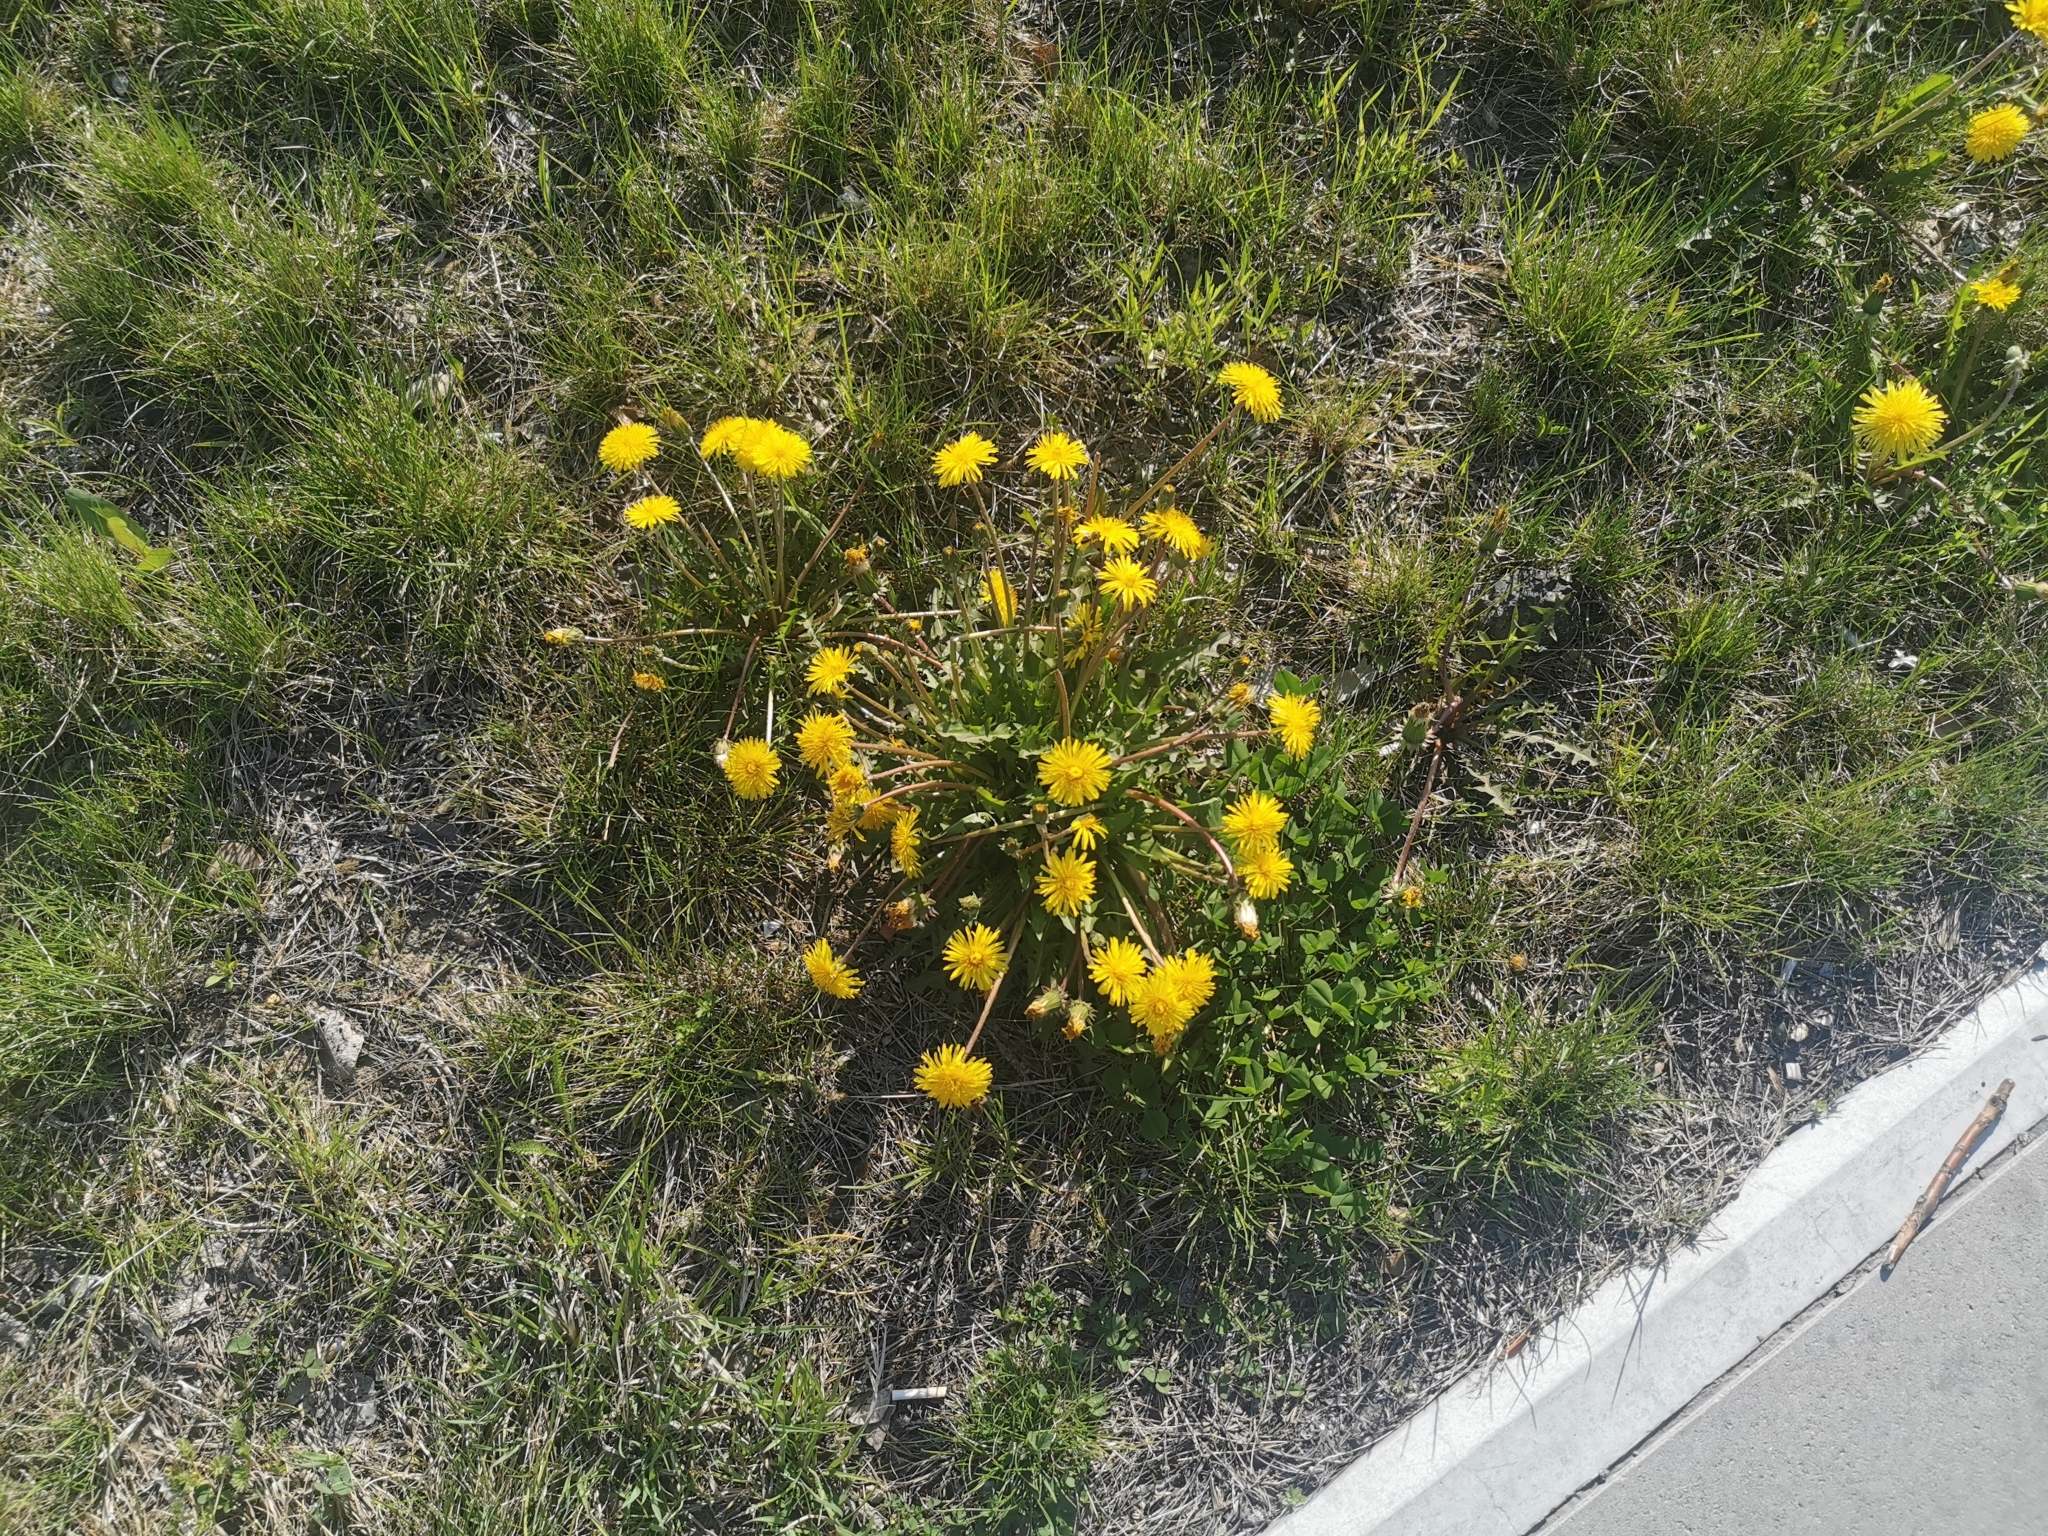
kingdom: Plantae
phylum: Tracheophyta
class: Magnoliopsida
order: Asterales
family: Asteraceae
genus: Taraxacum
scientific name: Taraxacum officinale
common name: Common dandelion
